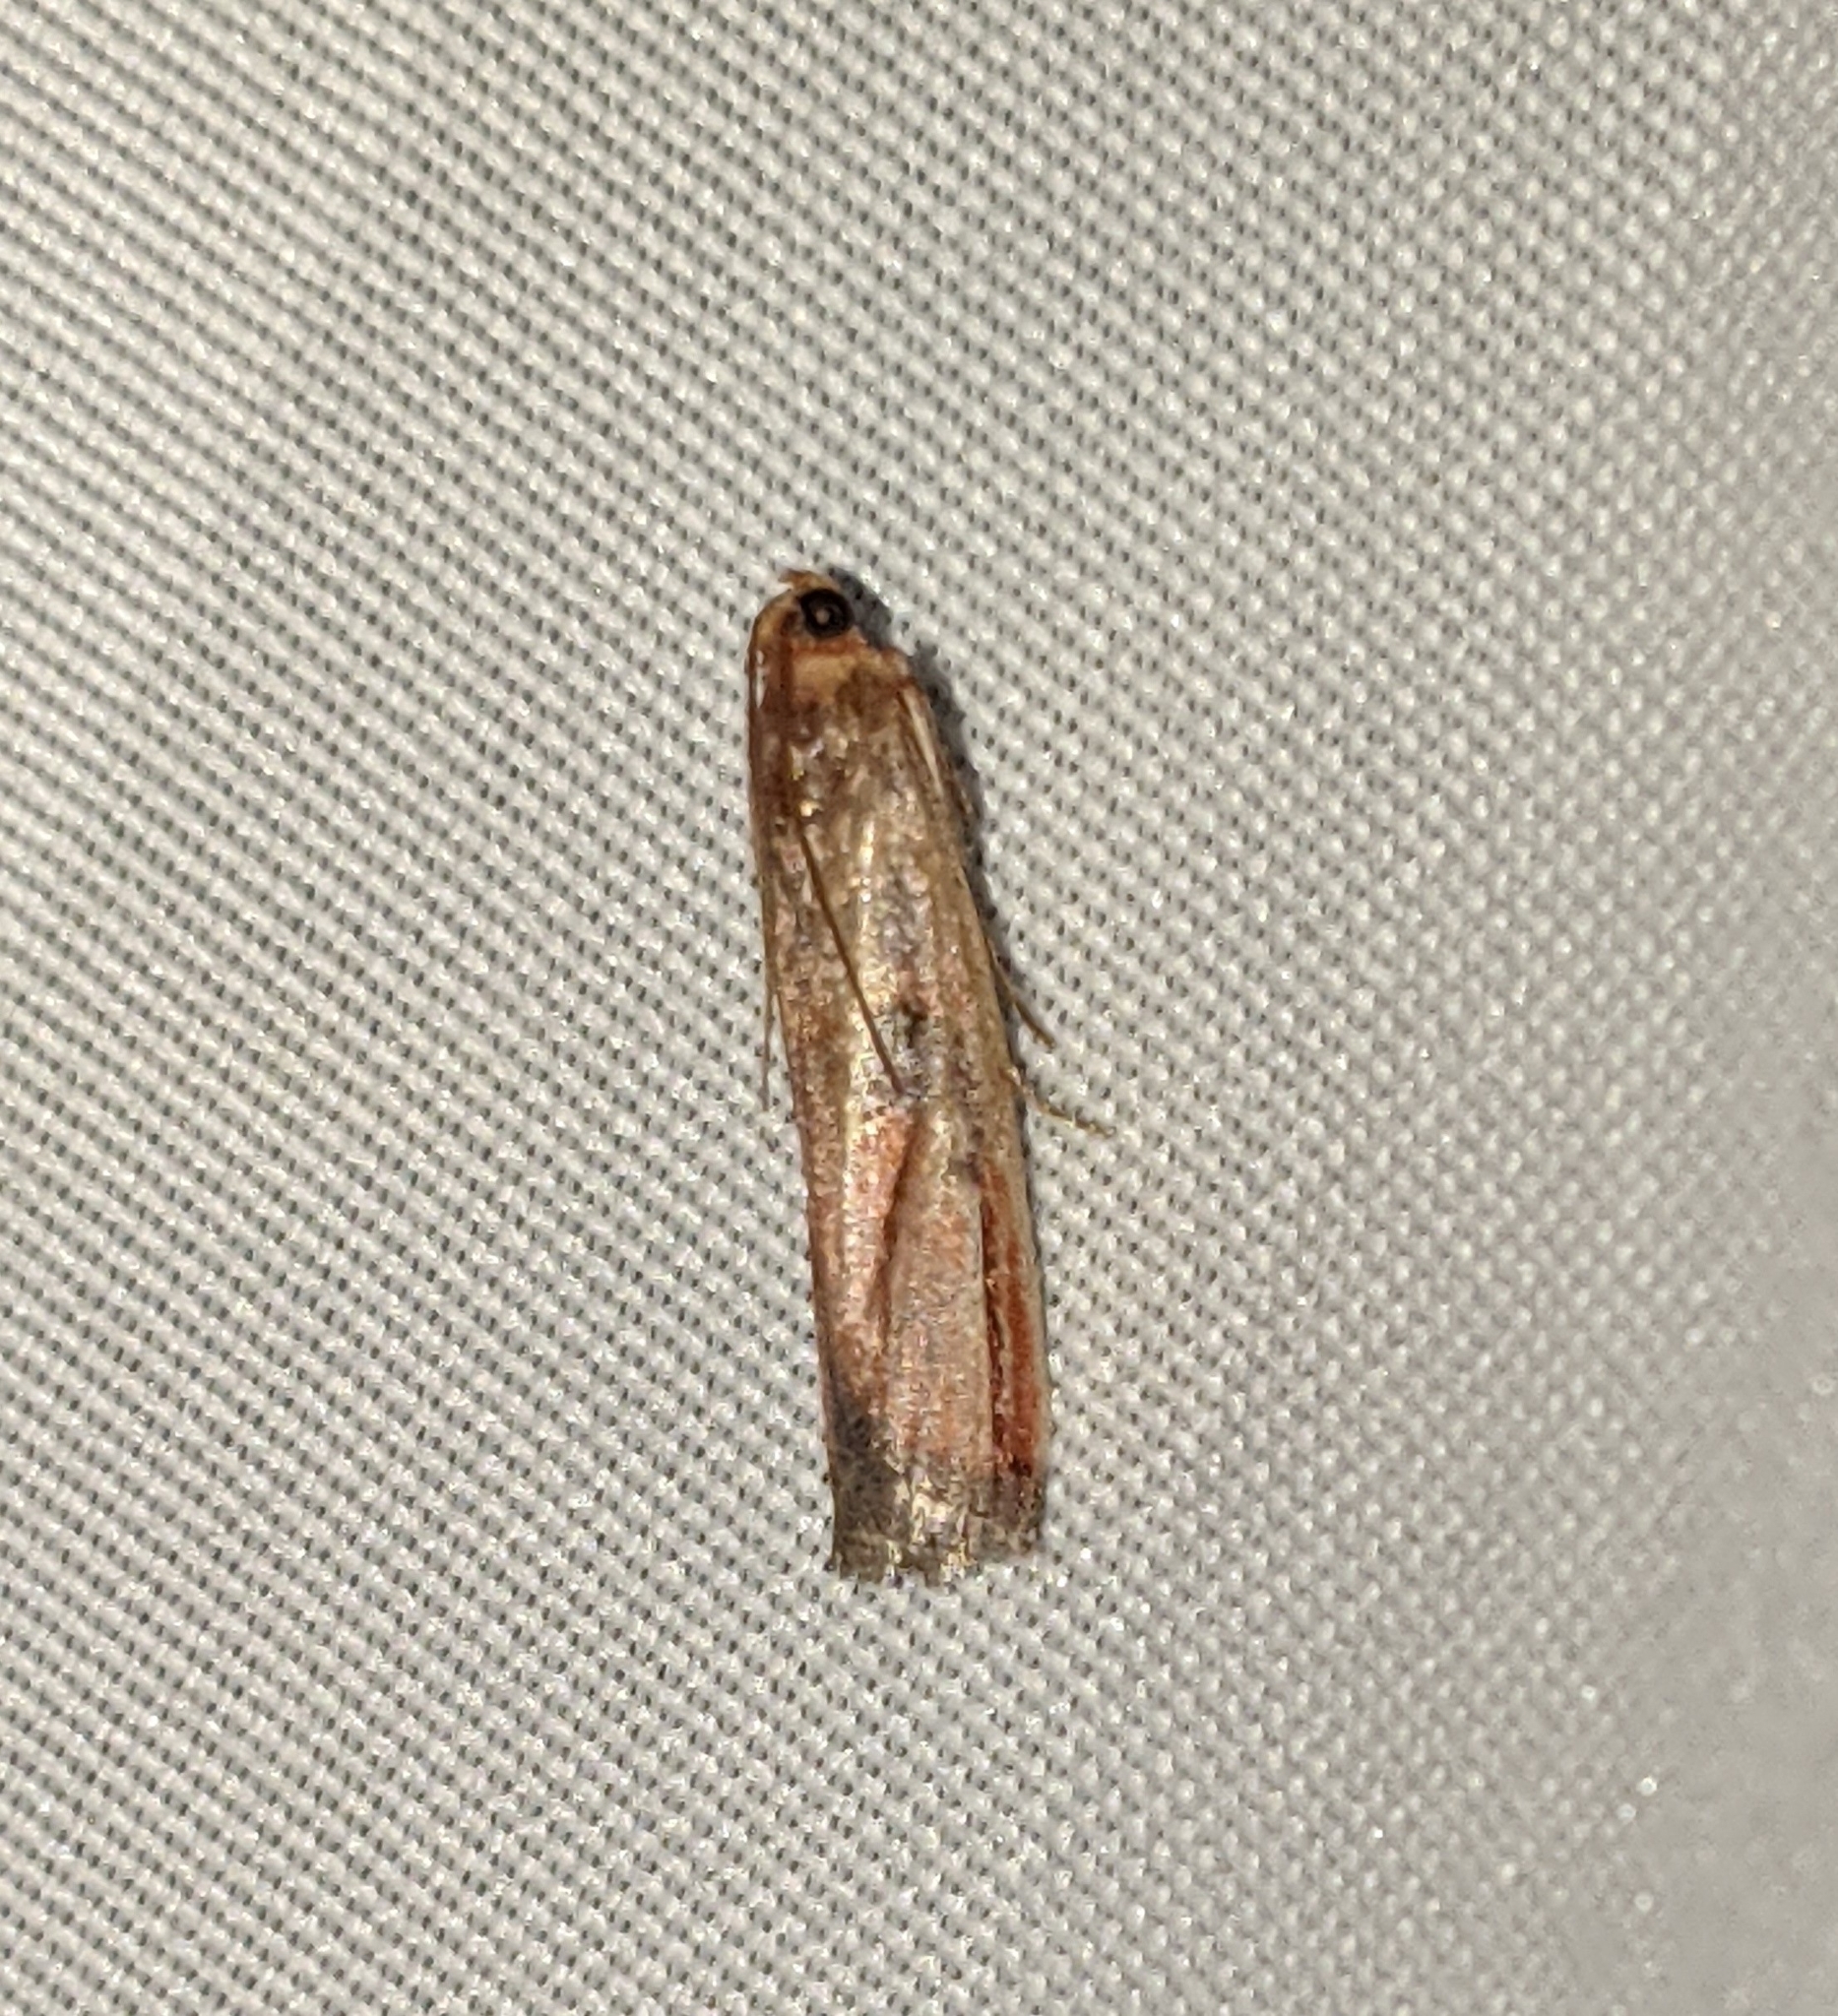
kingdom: Animalia
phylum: Arthropoda
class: Insecta
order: Lepidoptera
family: Pyralidae
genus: Dasypyga
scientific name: Dasypyga alternosquamella
